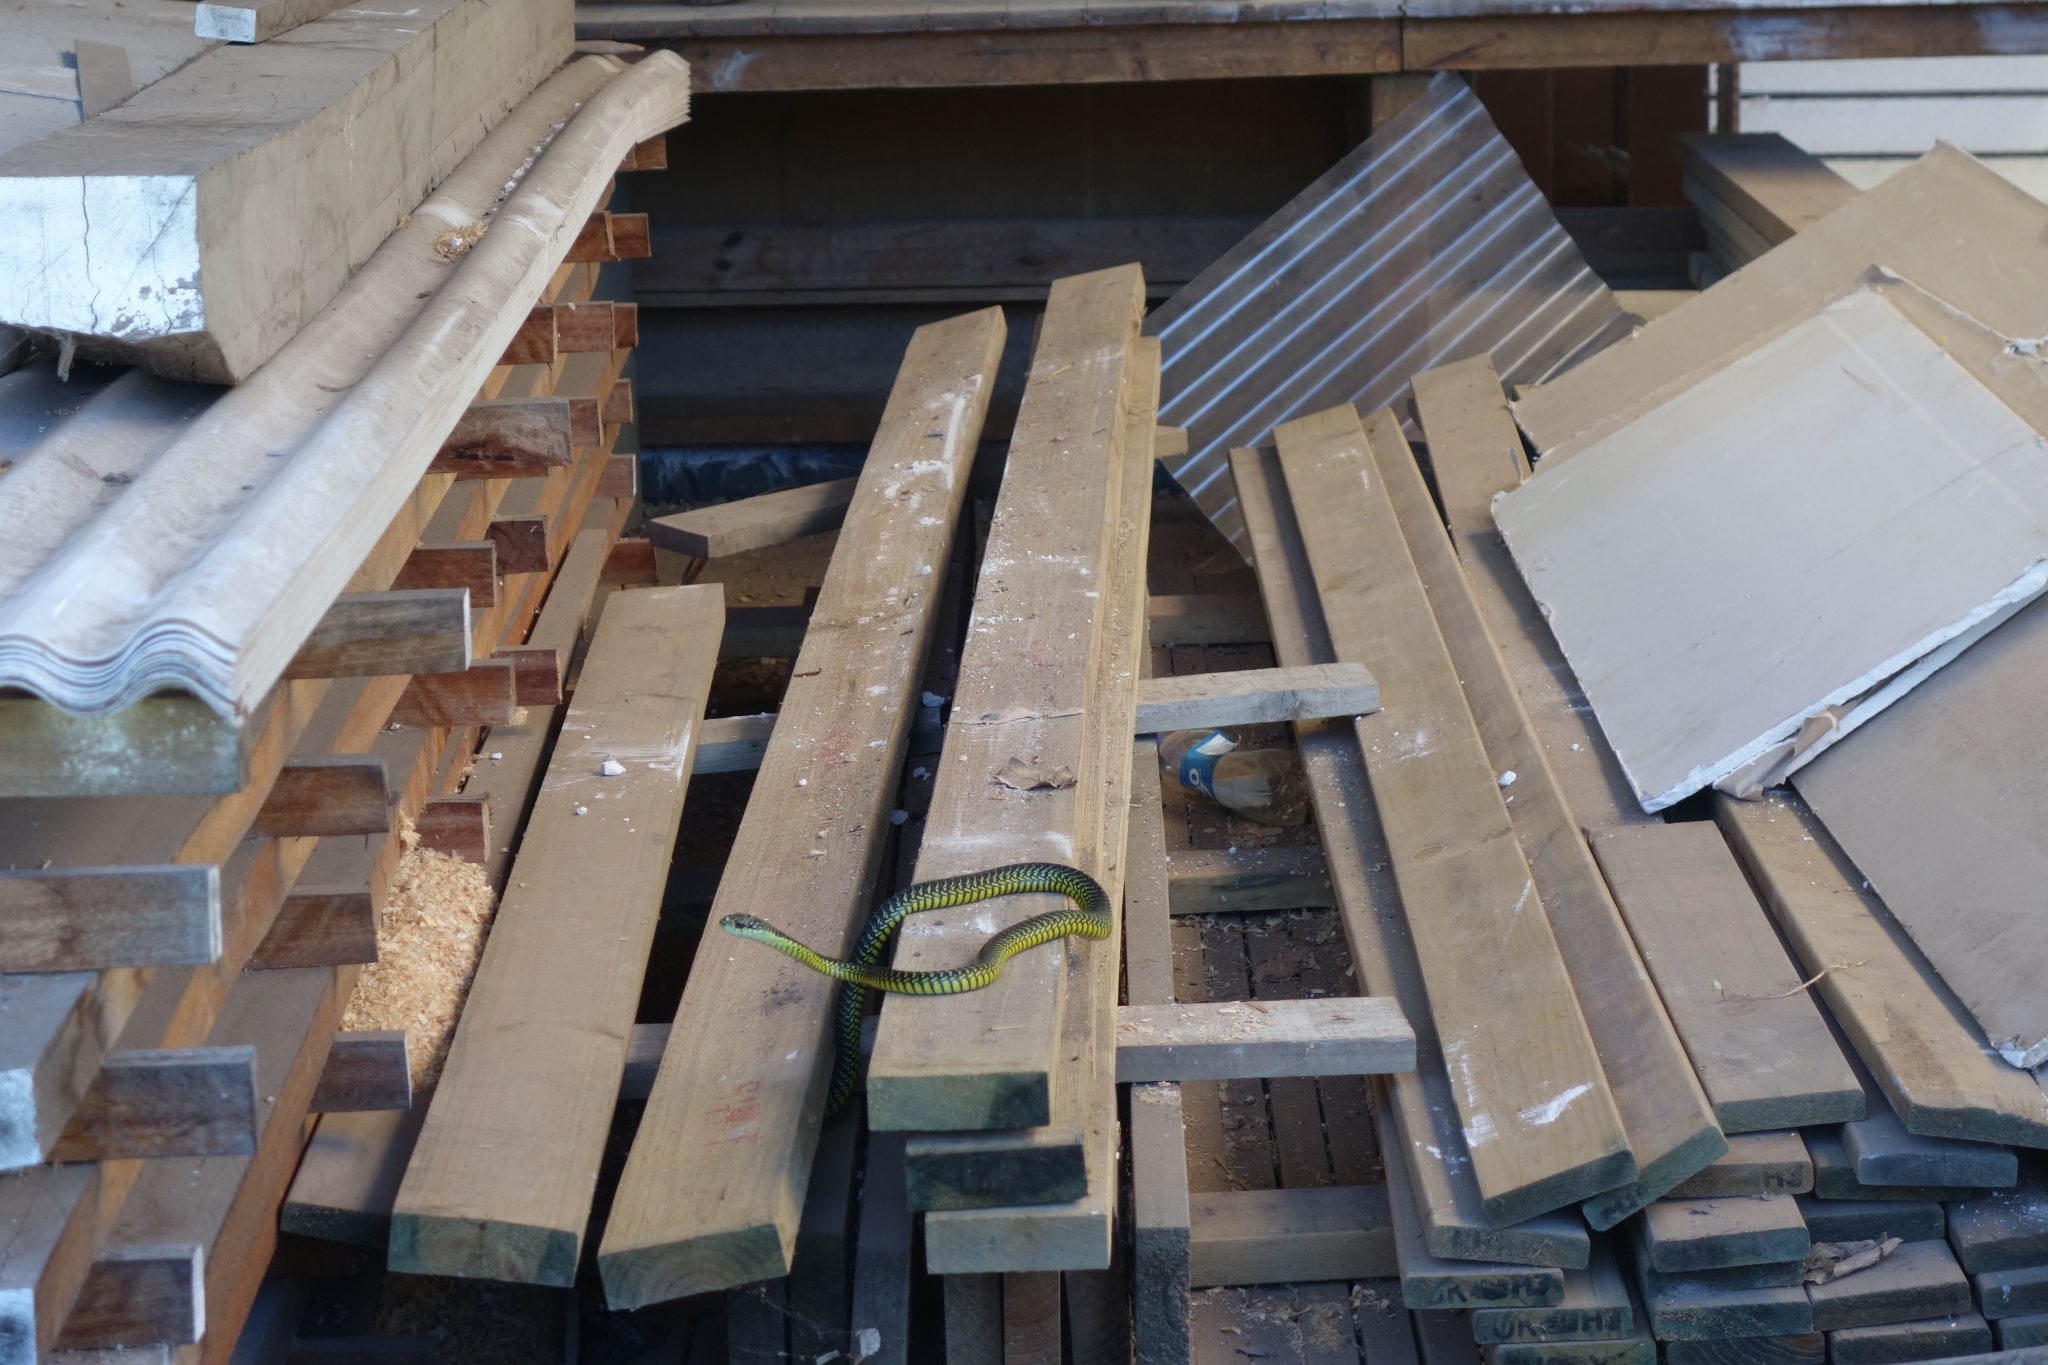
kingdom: Animalia
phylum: Chordata
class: Squamata
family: Colubridae
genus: Dispholidus
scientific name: Dispholidus typus
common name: Boomslang
